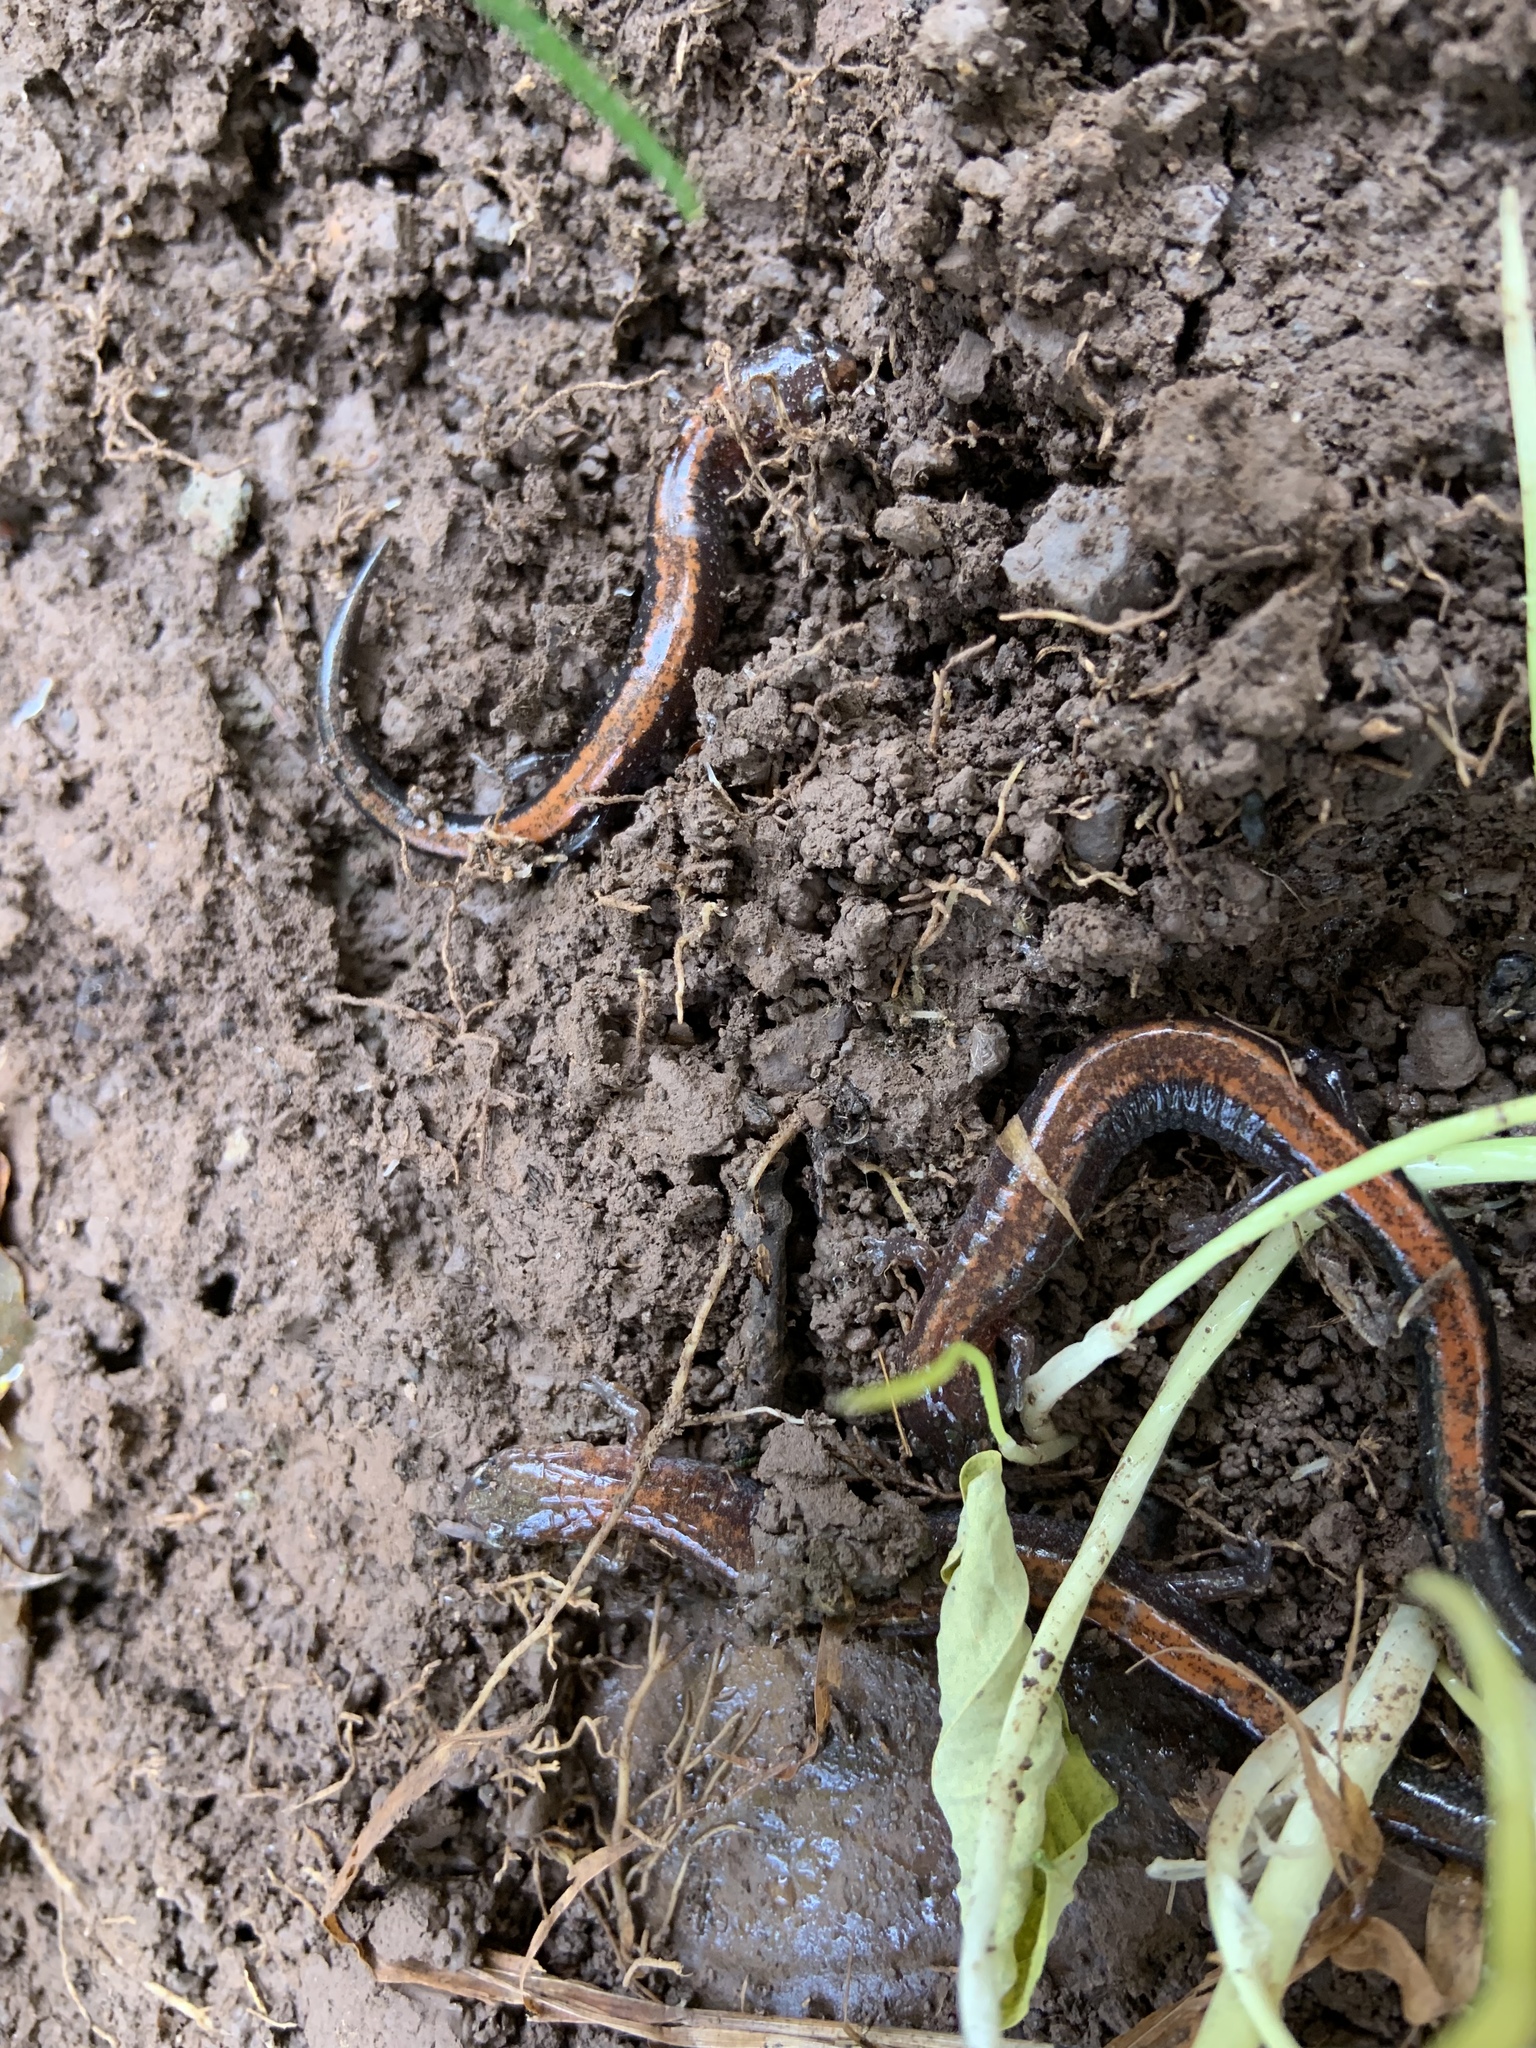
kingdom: Animalia
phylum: Chordata
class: Amphibia
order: Caudata
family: Plethodontidae
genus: Plethodon
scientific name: Plethodon cinereus
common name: Redback salamander
